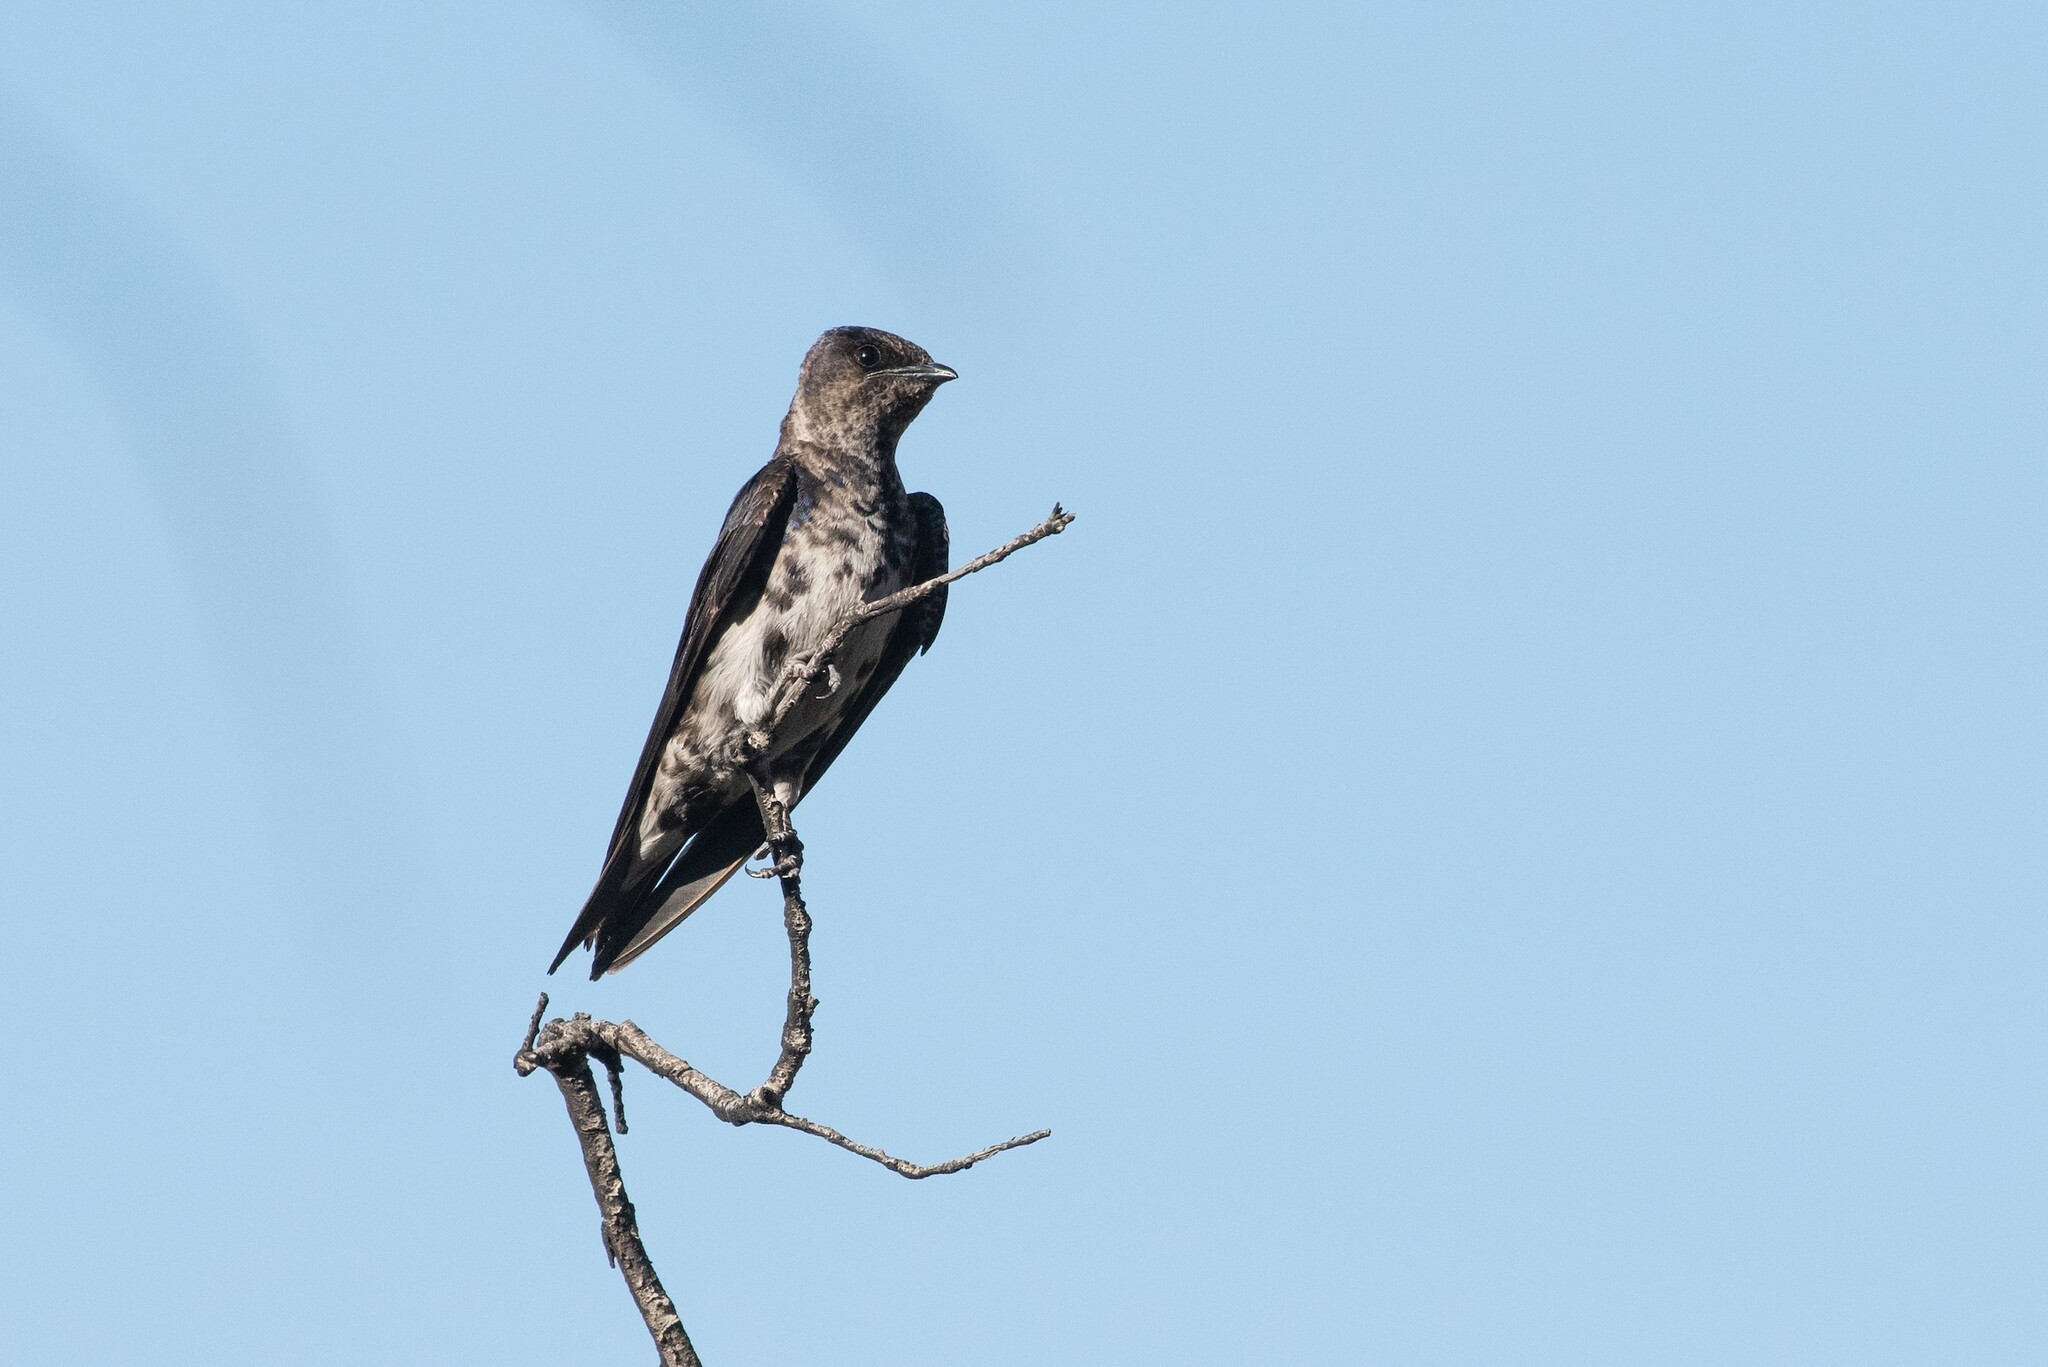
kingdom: Animalia
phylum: Chordata
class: Aves
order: Passeriformes
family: Hirundinidae
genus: Progne
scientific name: Progne subis
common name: Purple martin
